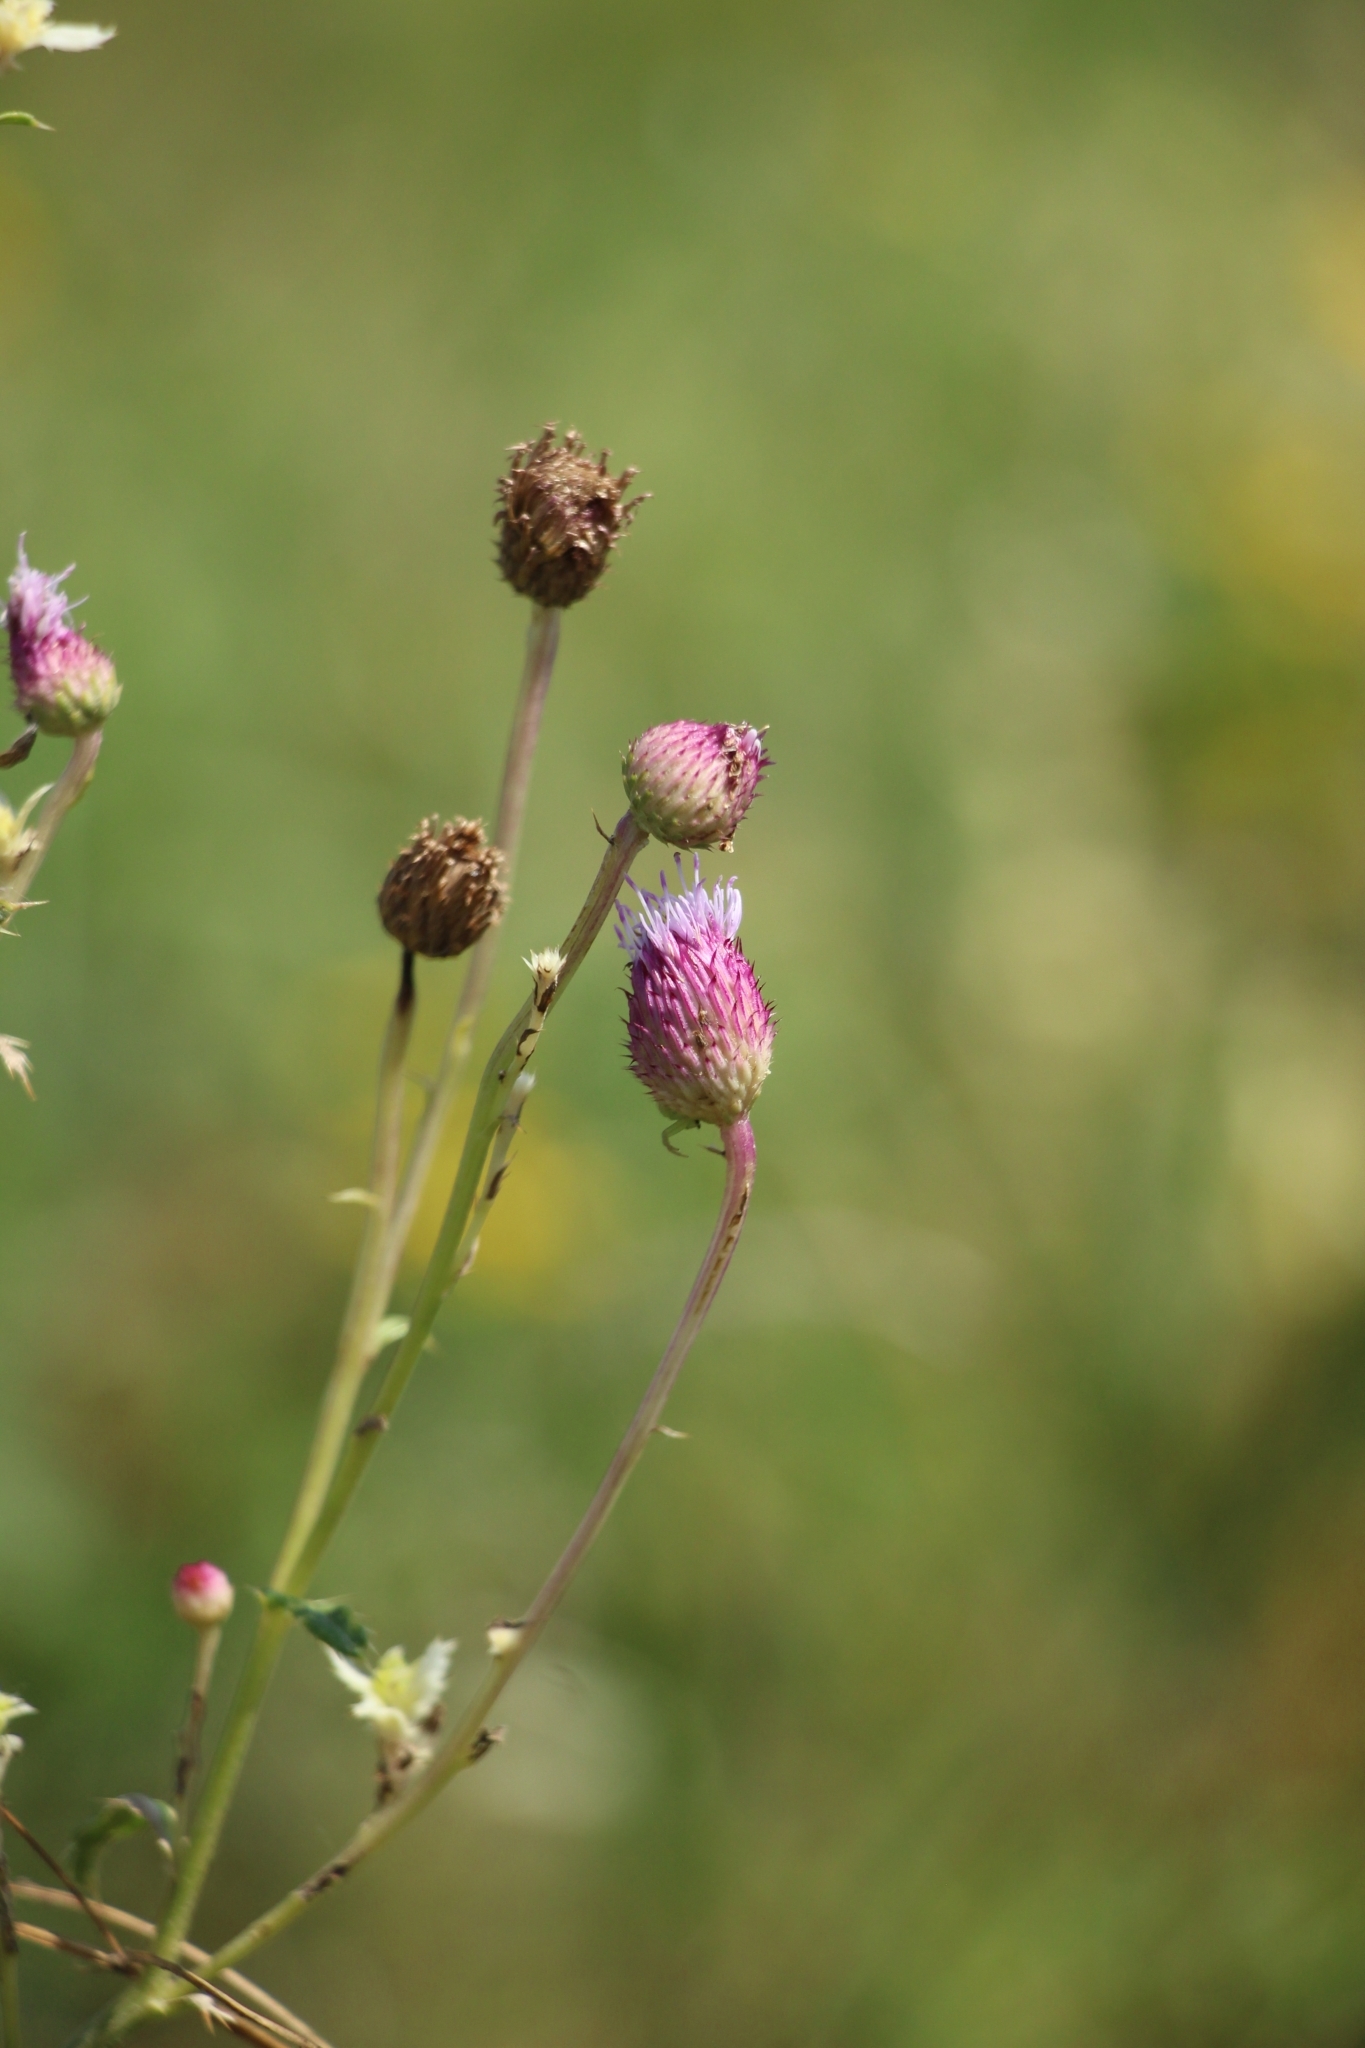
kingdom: Plantae
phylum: Tracheophyta
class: Magnoliopsida
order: Asterales
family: Asteraceae
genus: Cirsium
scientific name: Cirsium arvense
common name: Creeping thistle
